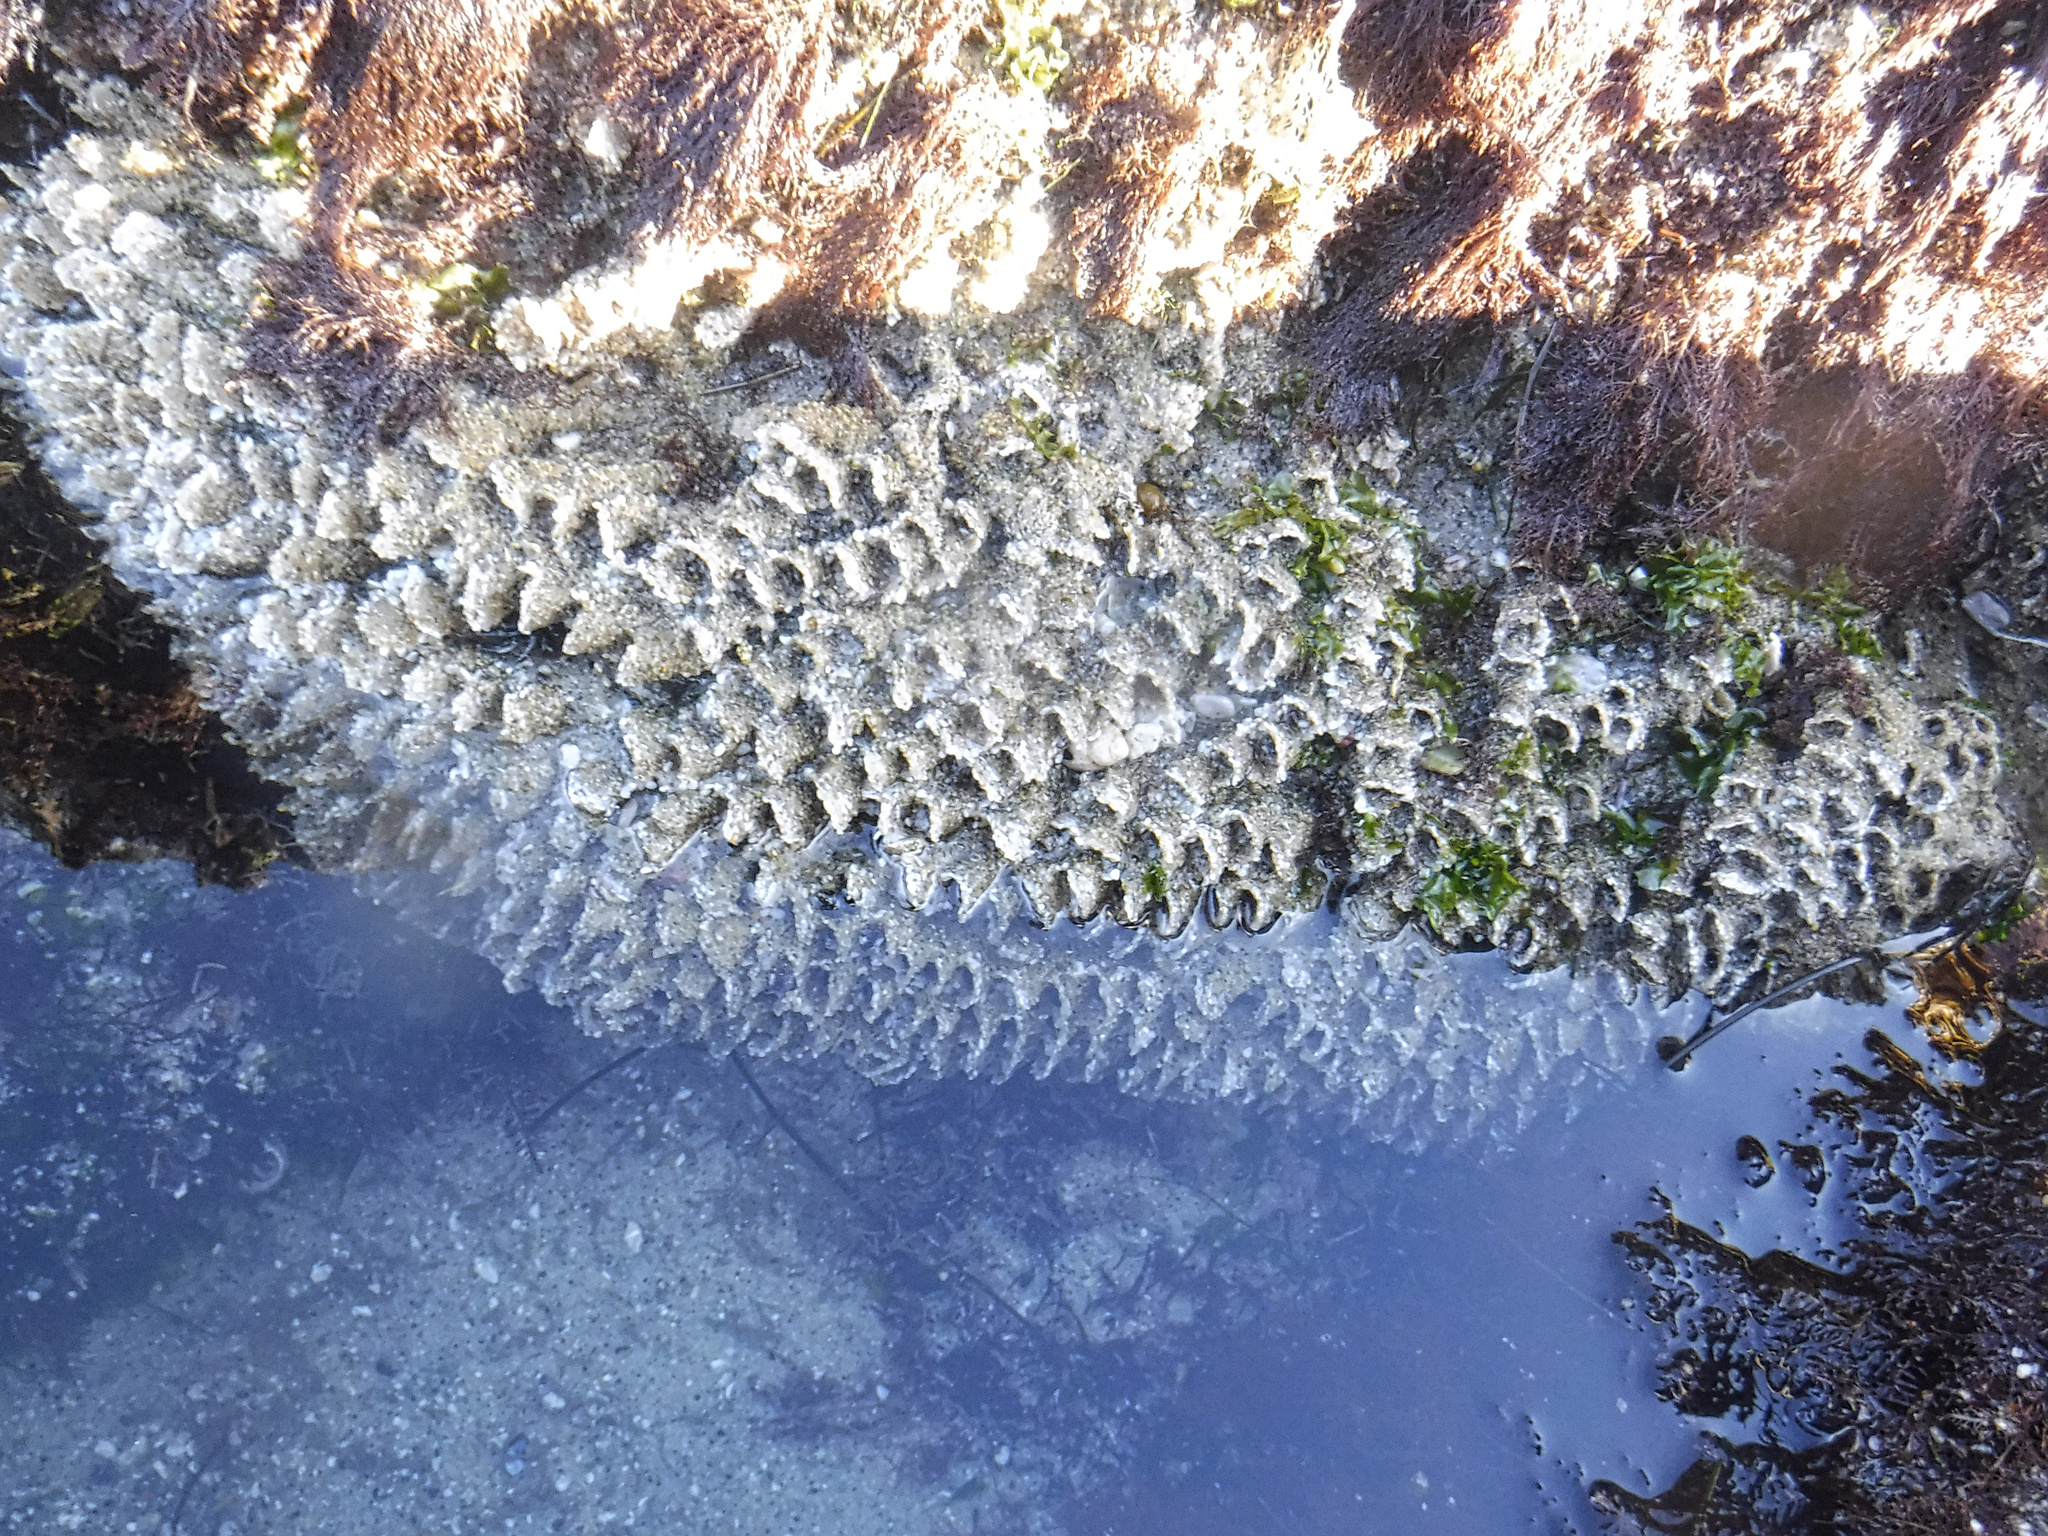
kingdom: Animalia
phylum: Annelida
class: Polychaeta
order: Sabellida
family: Sabellariidae
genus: Phragmatopoma
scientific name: Phragmatopoma californica
